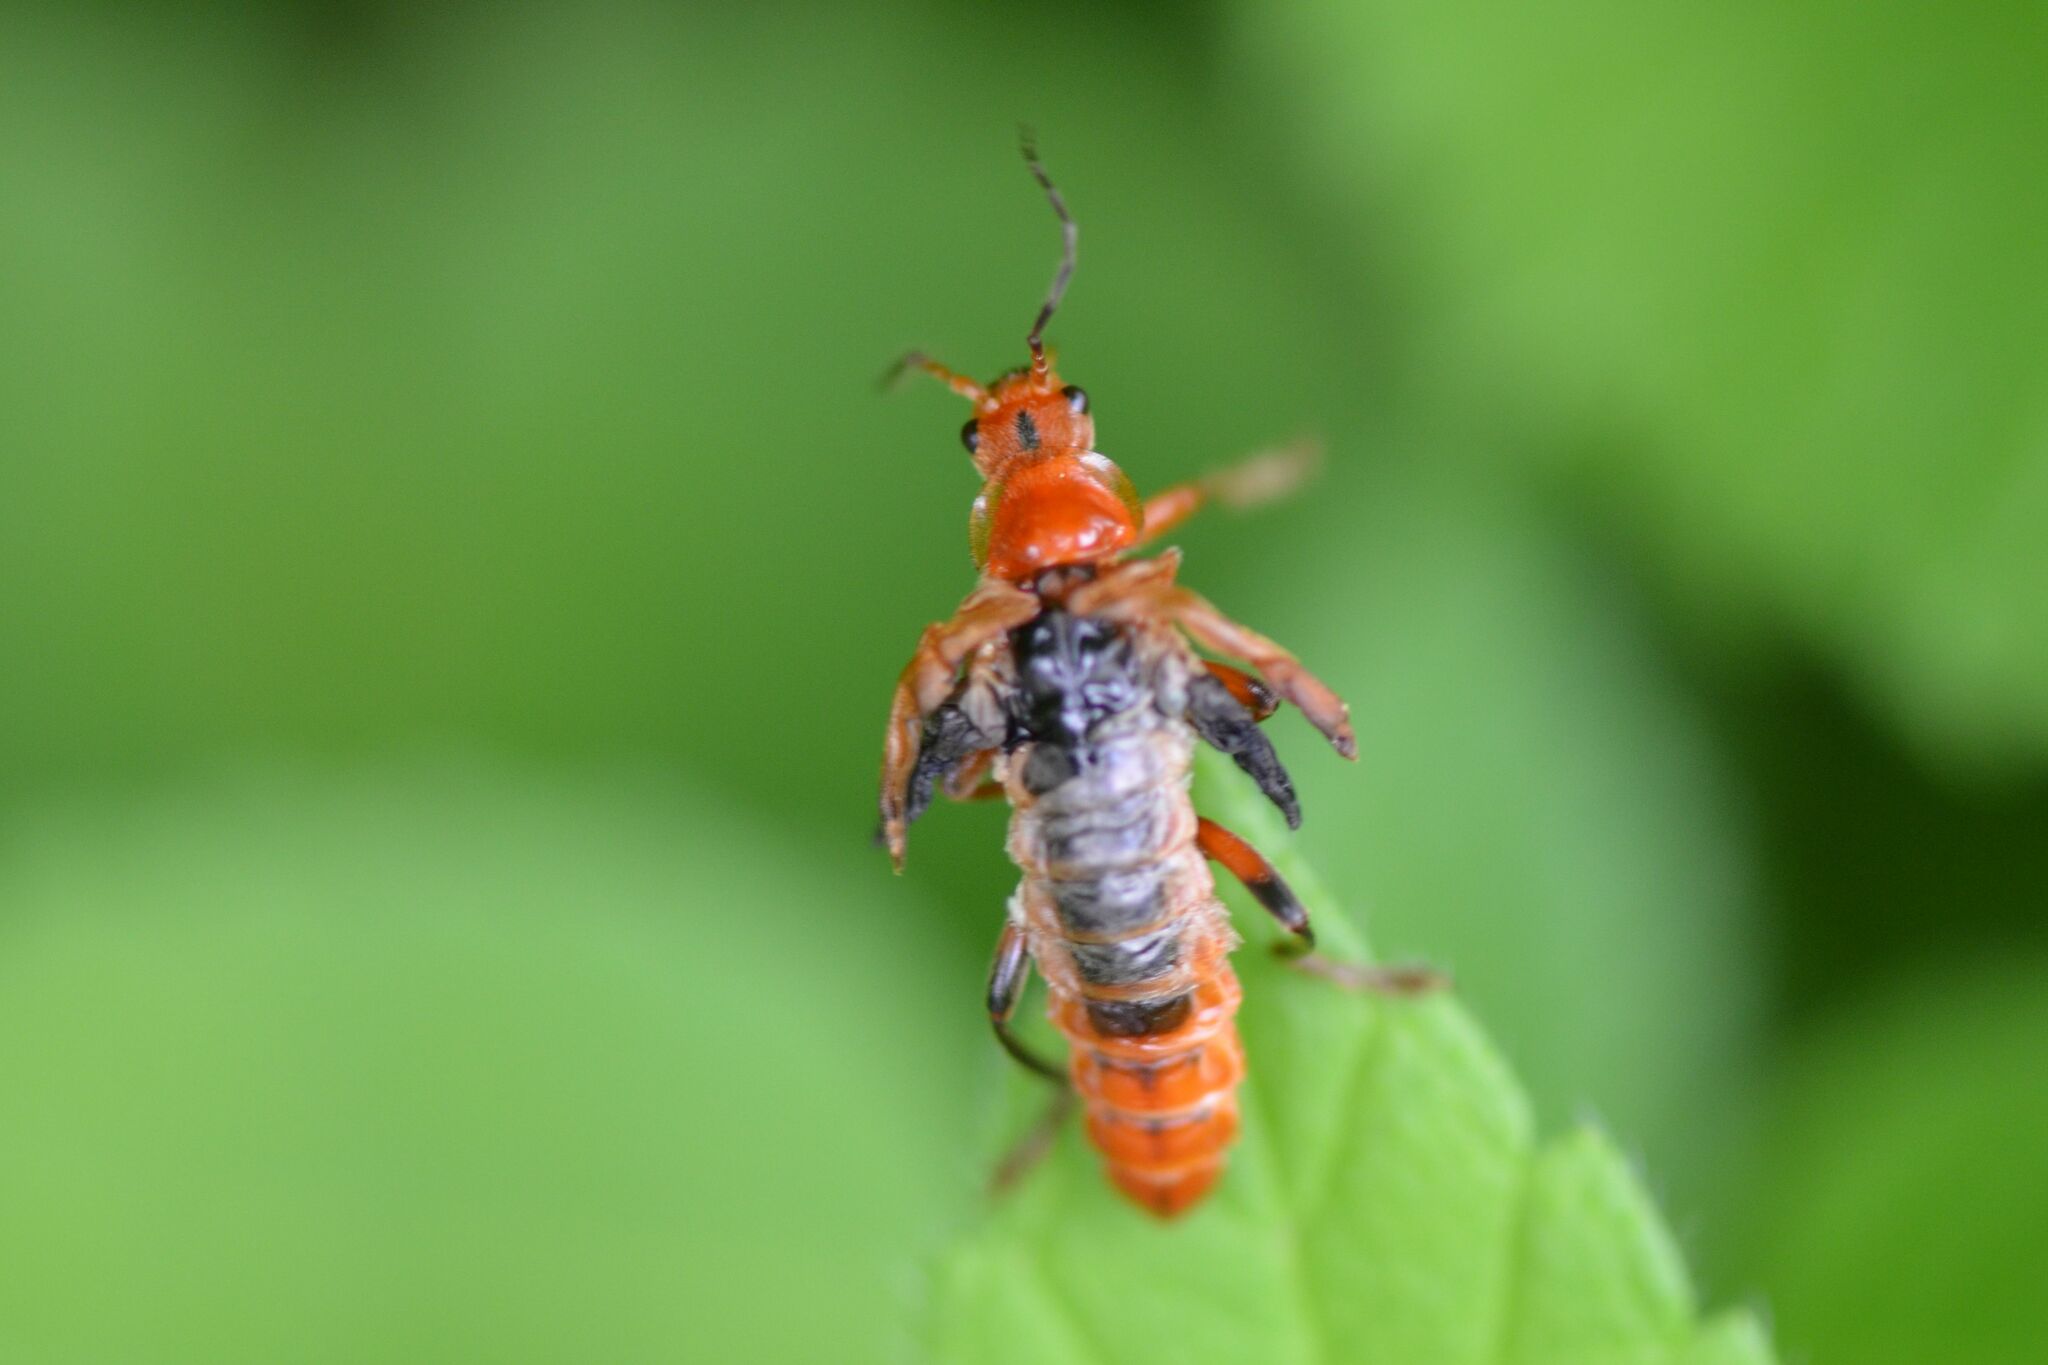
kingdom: Animalia
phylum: Arthropoda
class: Insecta
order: Coleoptera
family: Cantharidae
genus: Cantharis
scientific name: Cantharis livida
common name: Livid soldier beetle
